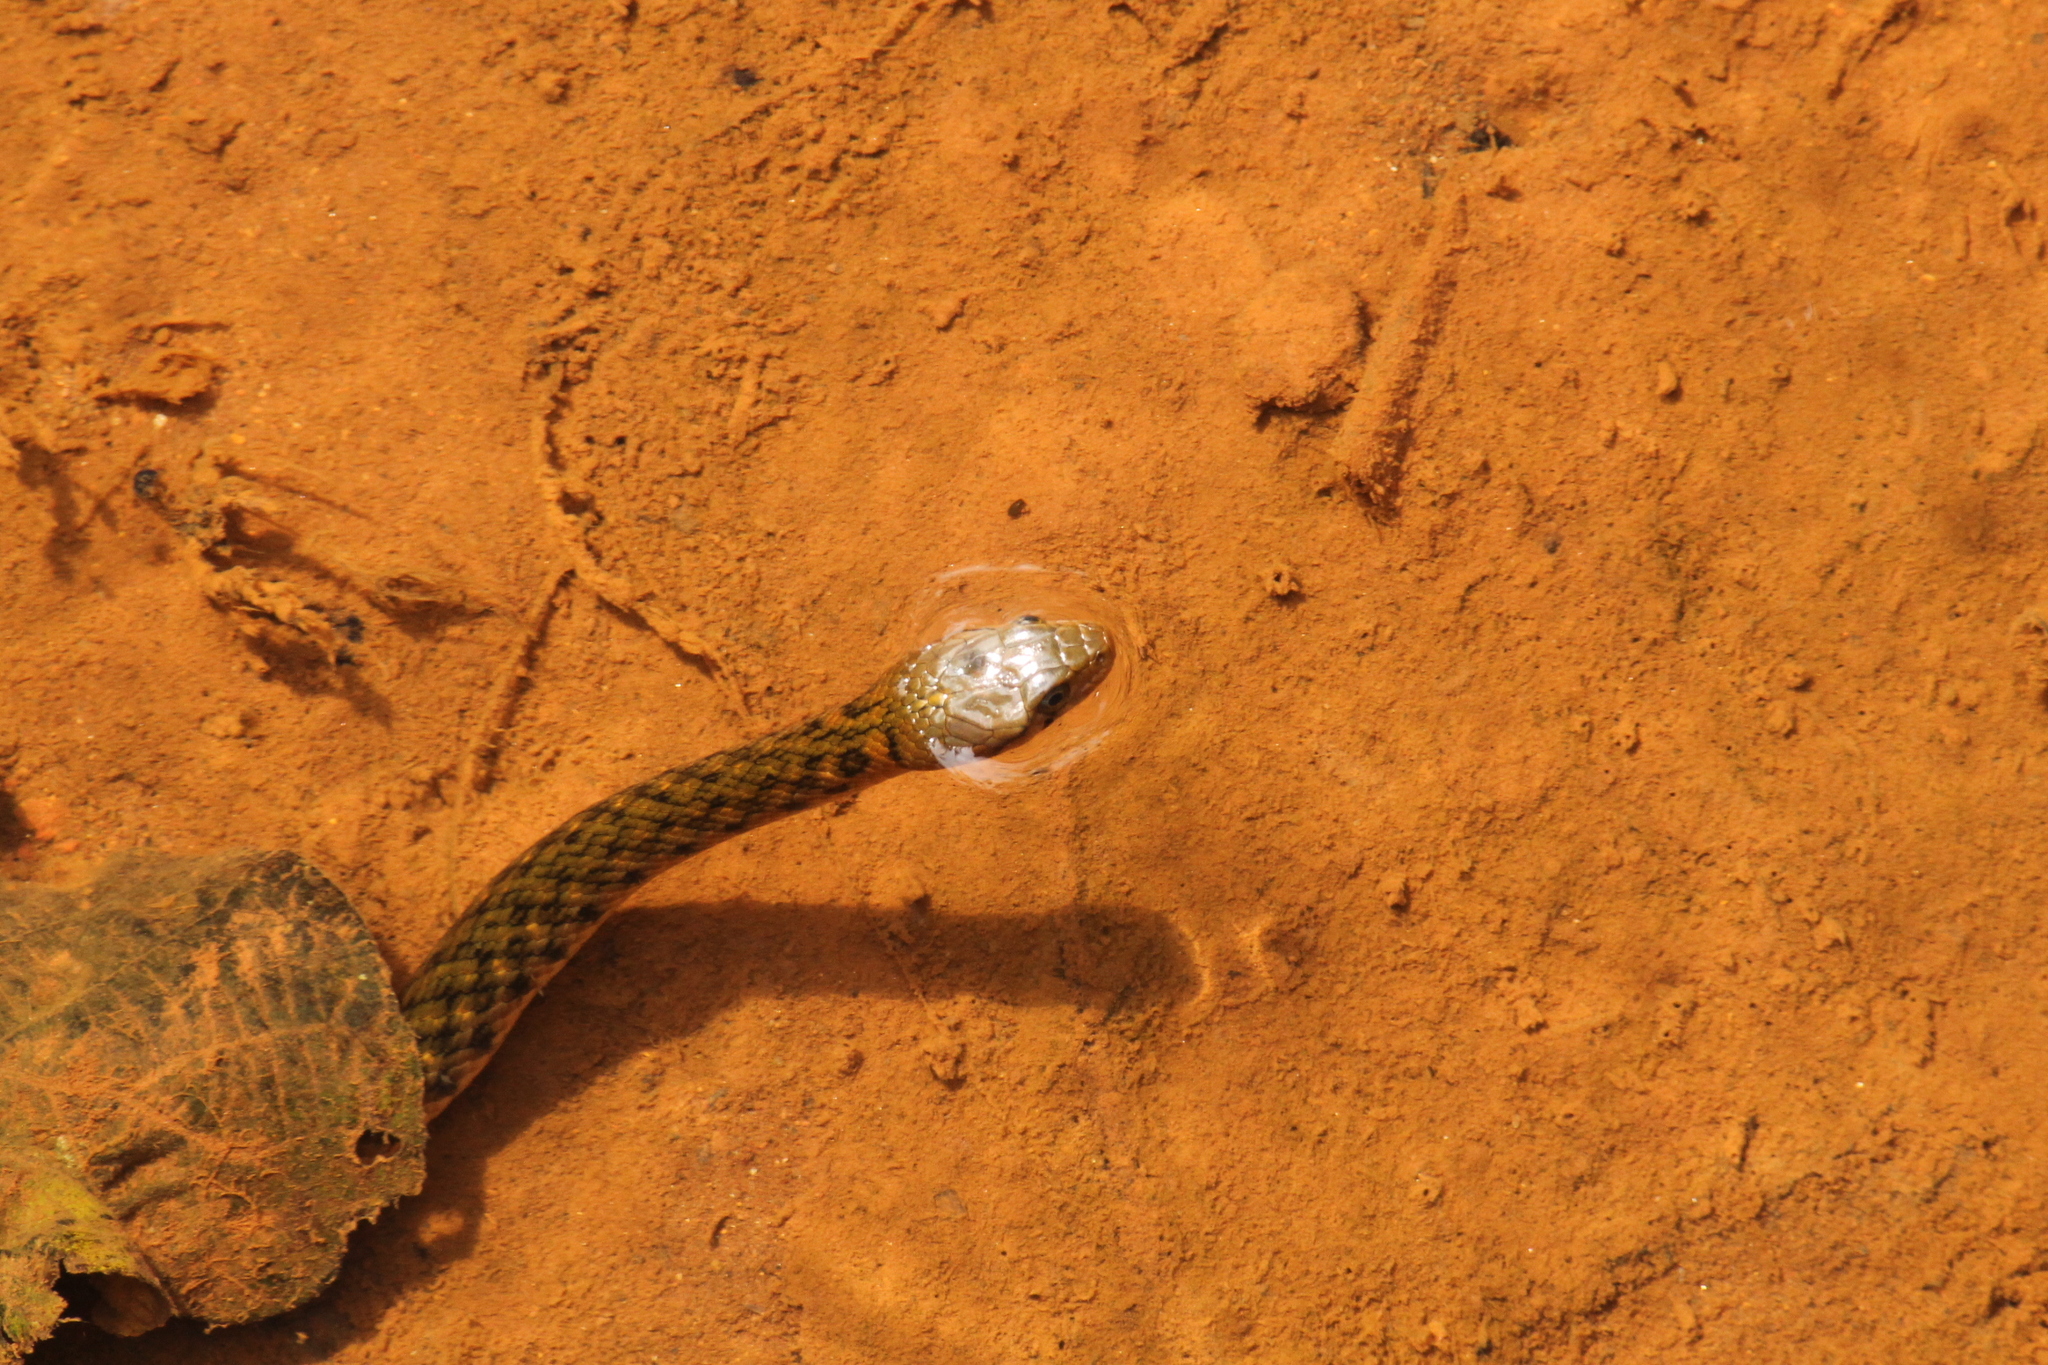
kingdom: Animalia
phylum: Chordata
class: Squamata
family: Colubridae
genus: Fowlea
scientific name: Fowlea piscator
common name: Asiatic water snake
